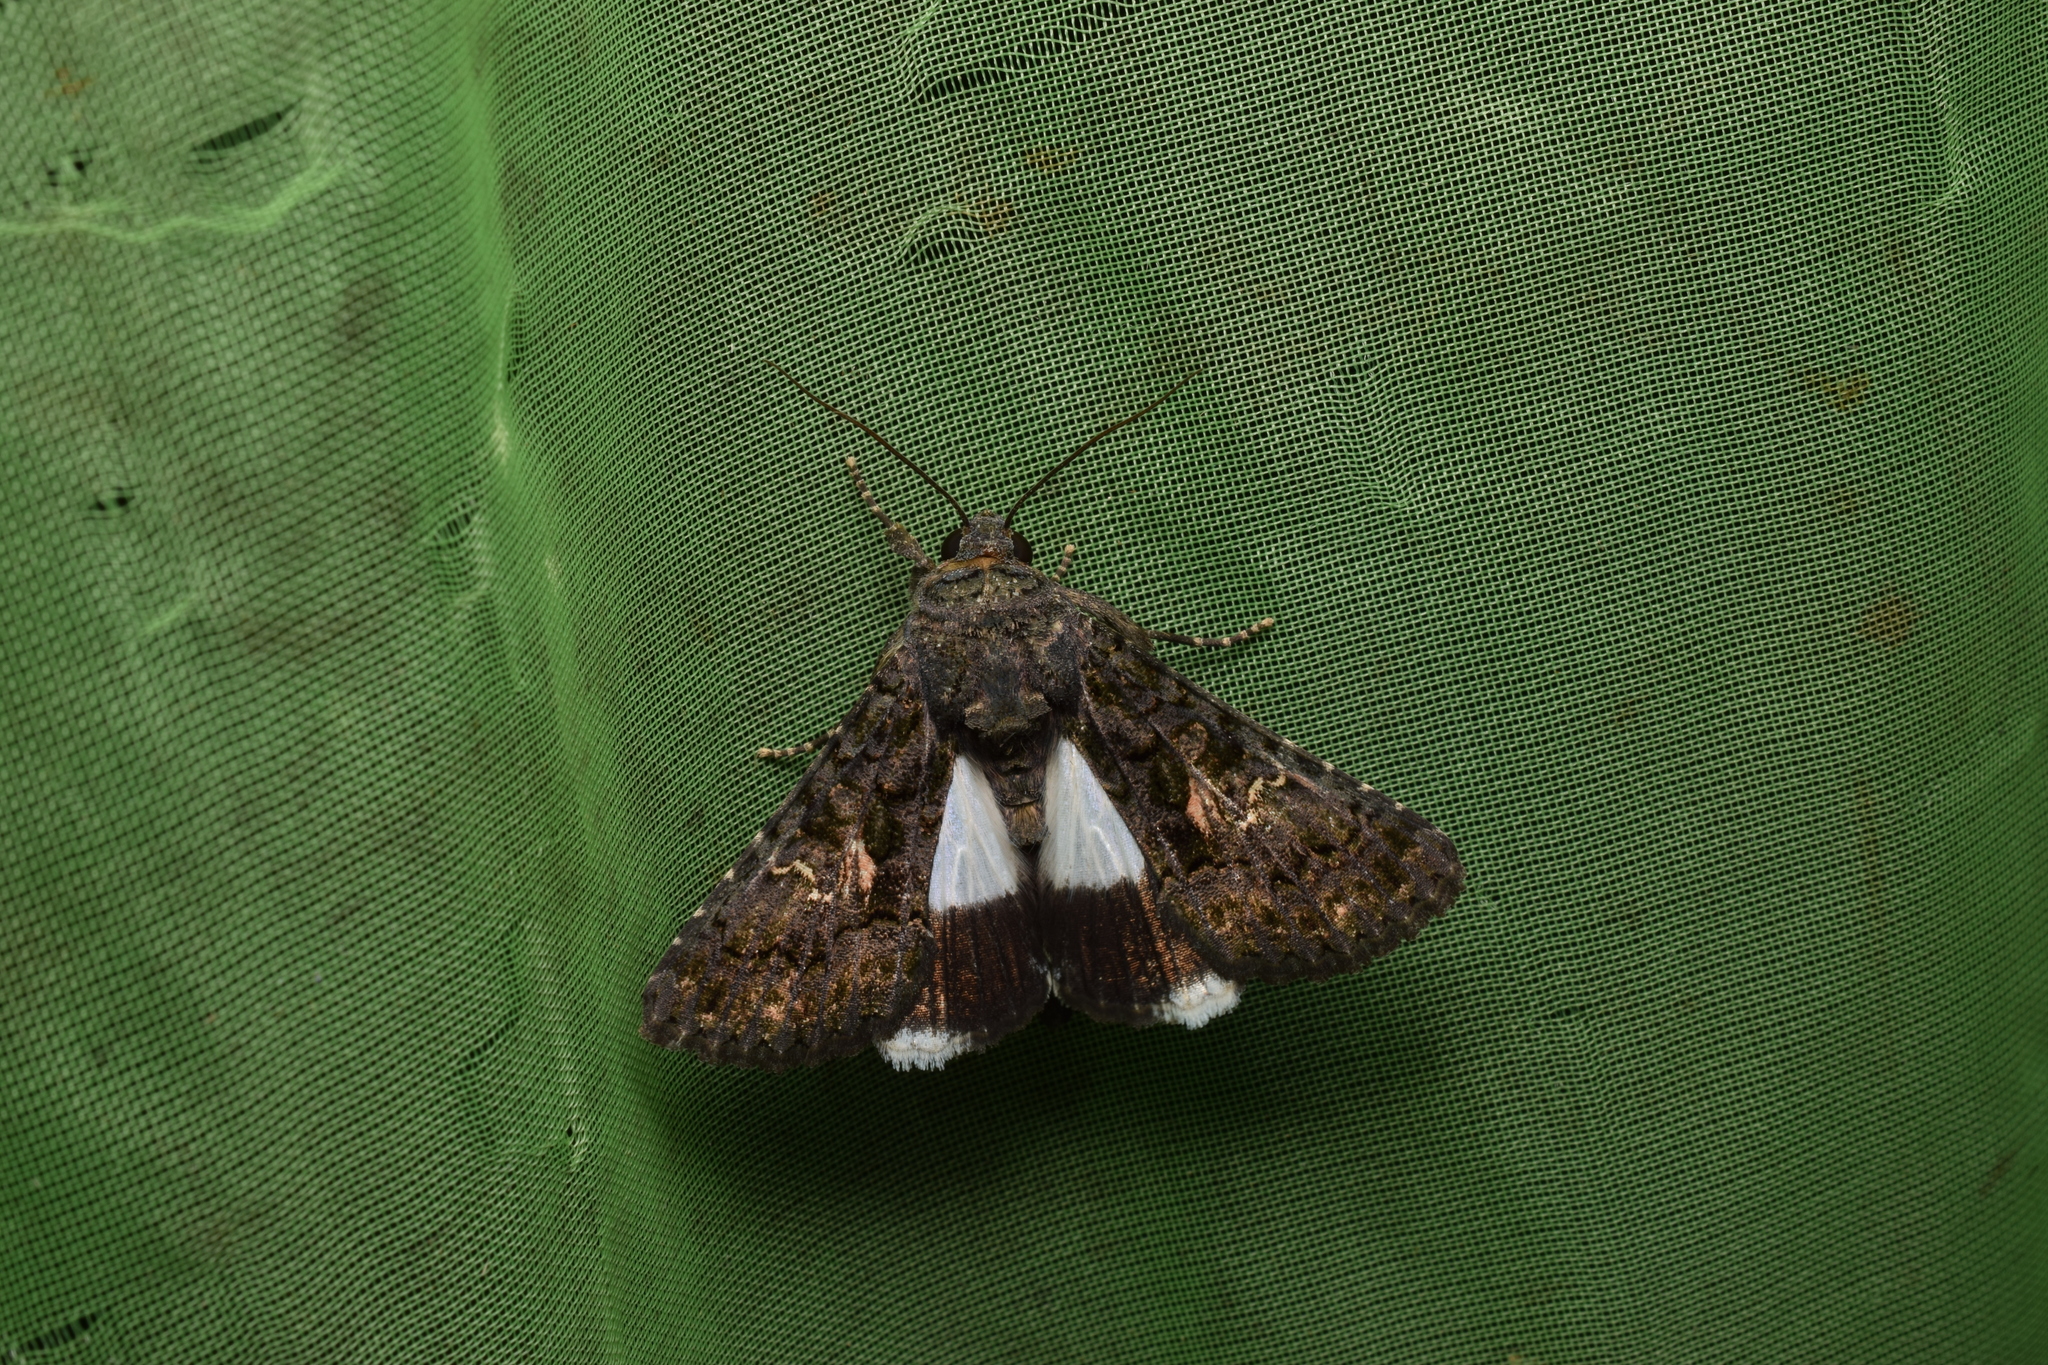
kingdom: Animalia
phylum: Arthropoda
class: Insecta
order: Lepidoptera
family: Noctuidae
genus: Aedia
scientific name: Aedia leucomelas
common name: Sorcerer
